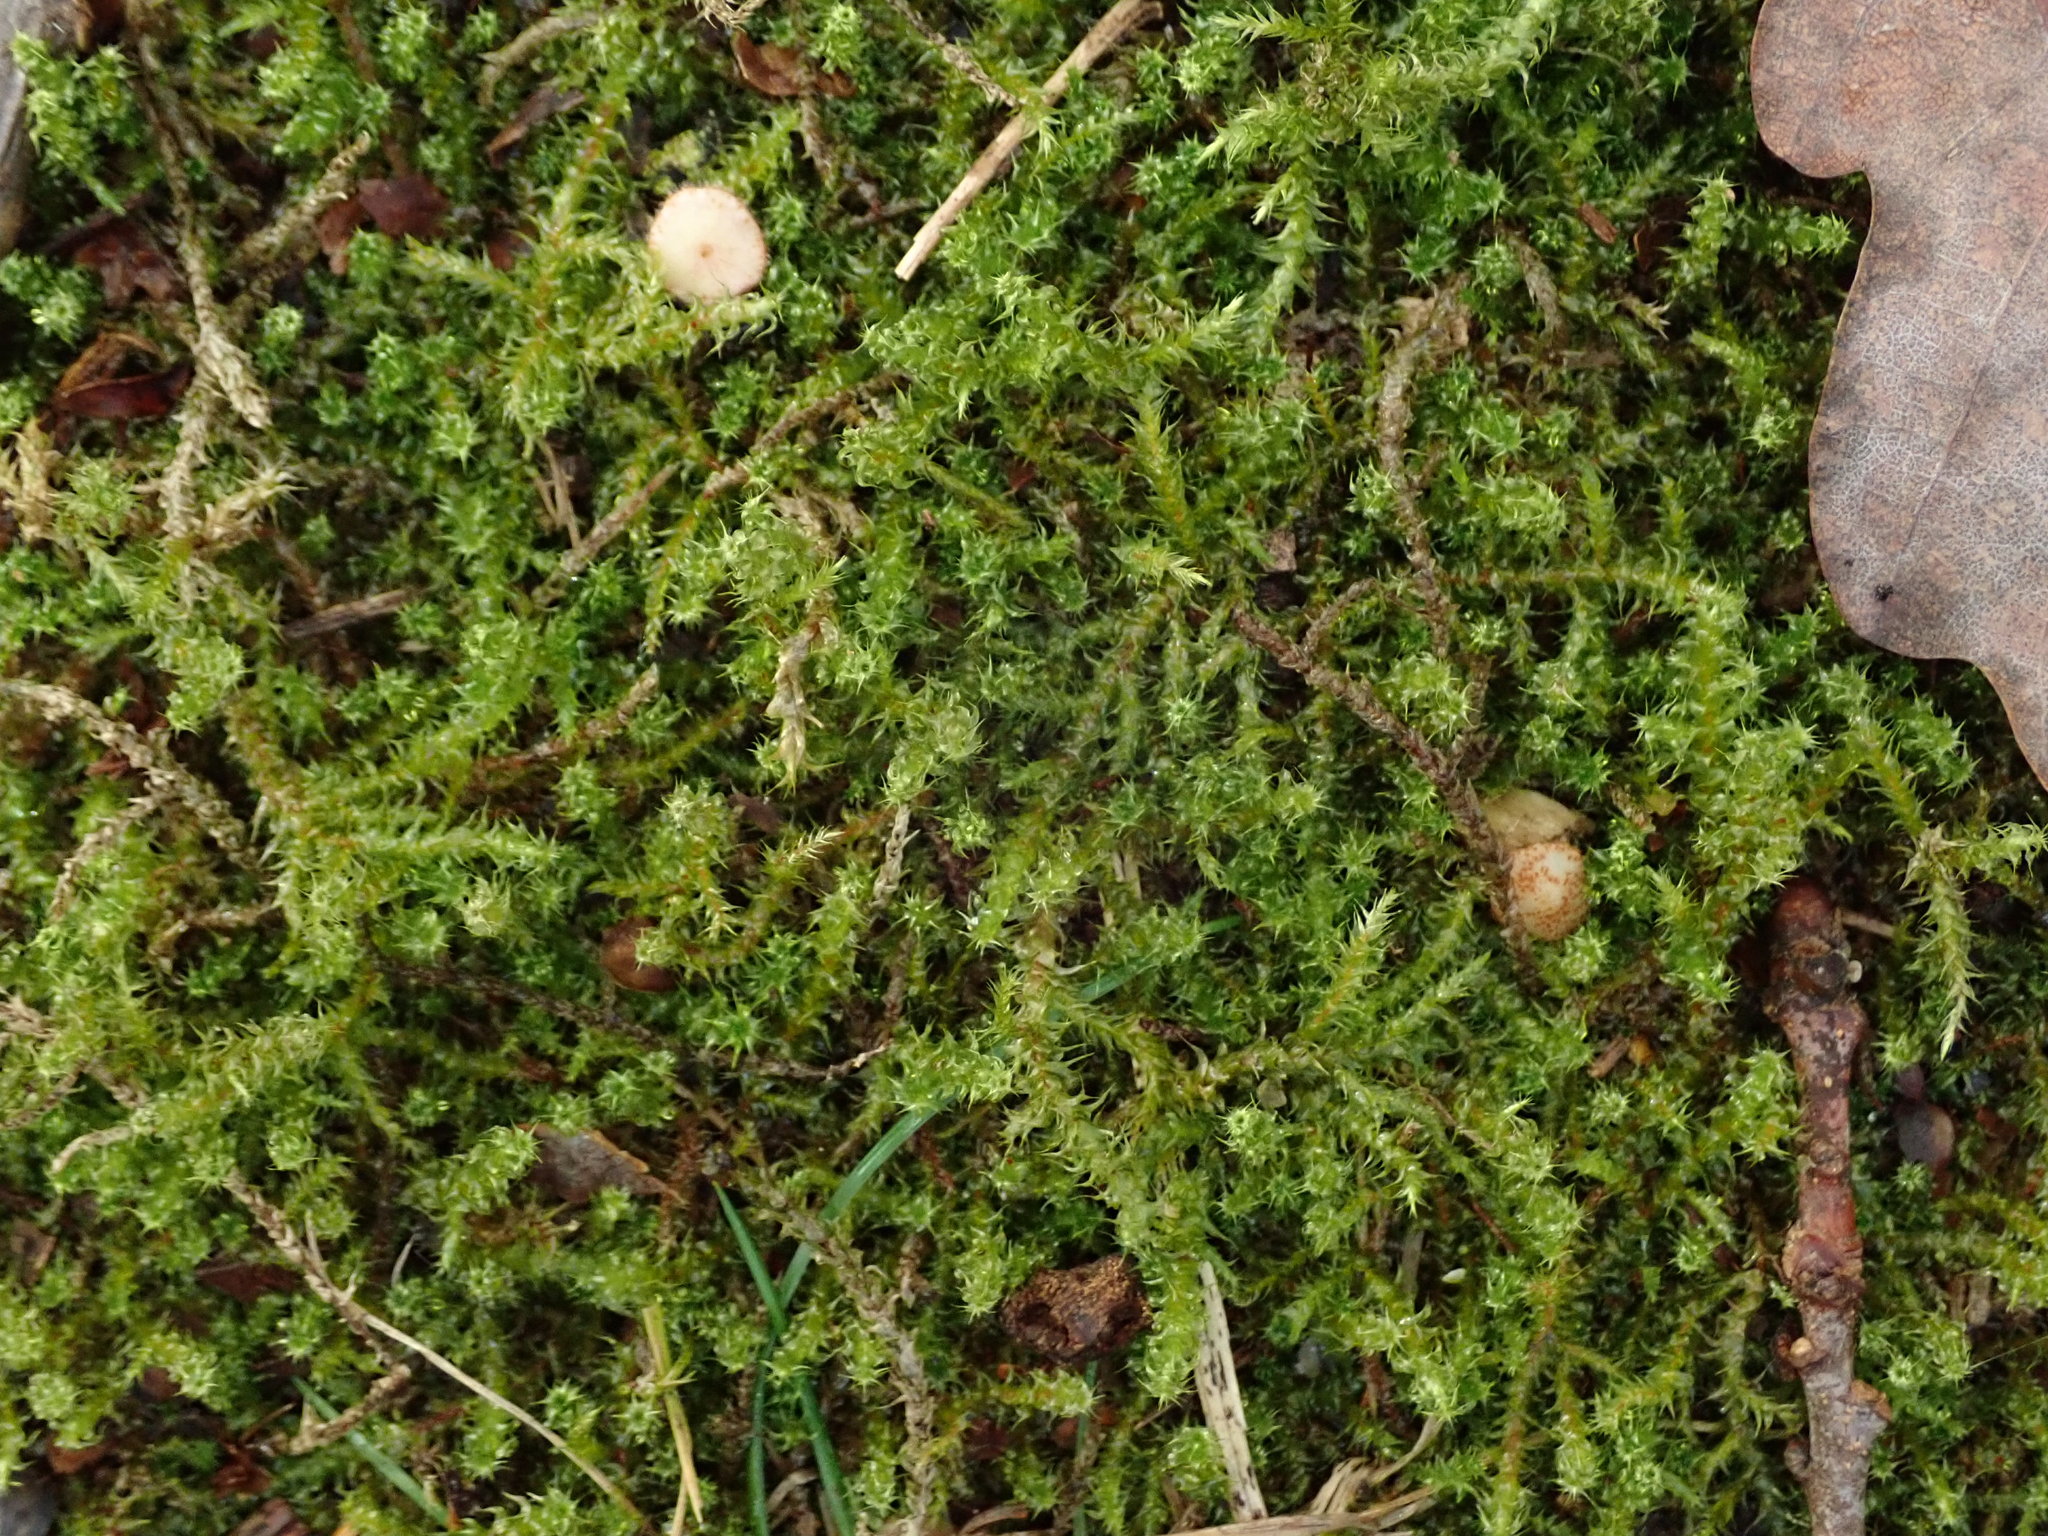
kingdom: Plantae
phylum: Bryophyta
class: Bryopsida
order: Hypnales
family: Hylocomiaceae
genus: Rhytidiadelphus
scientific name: Rhytidiadelphus squarrosus
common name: Springy turf-moss
